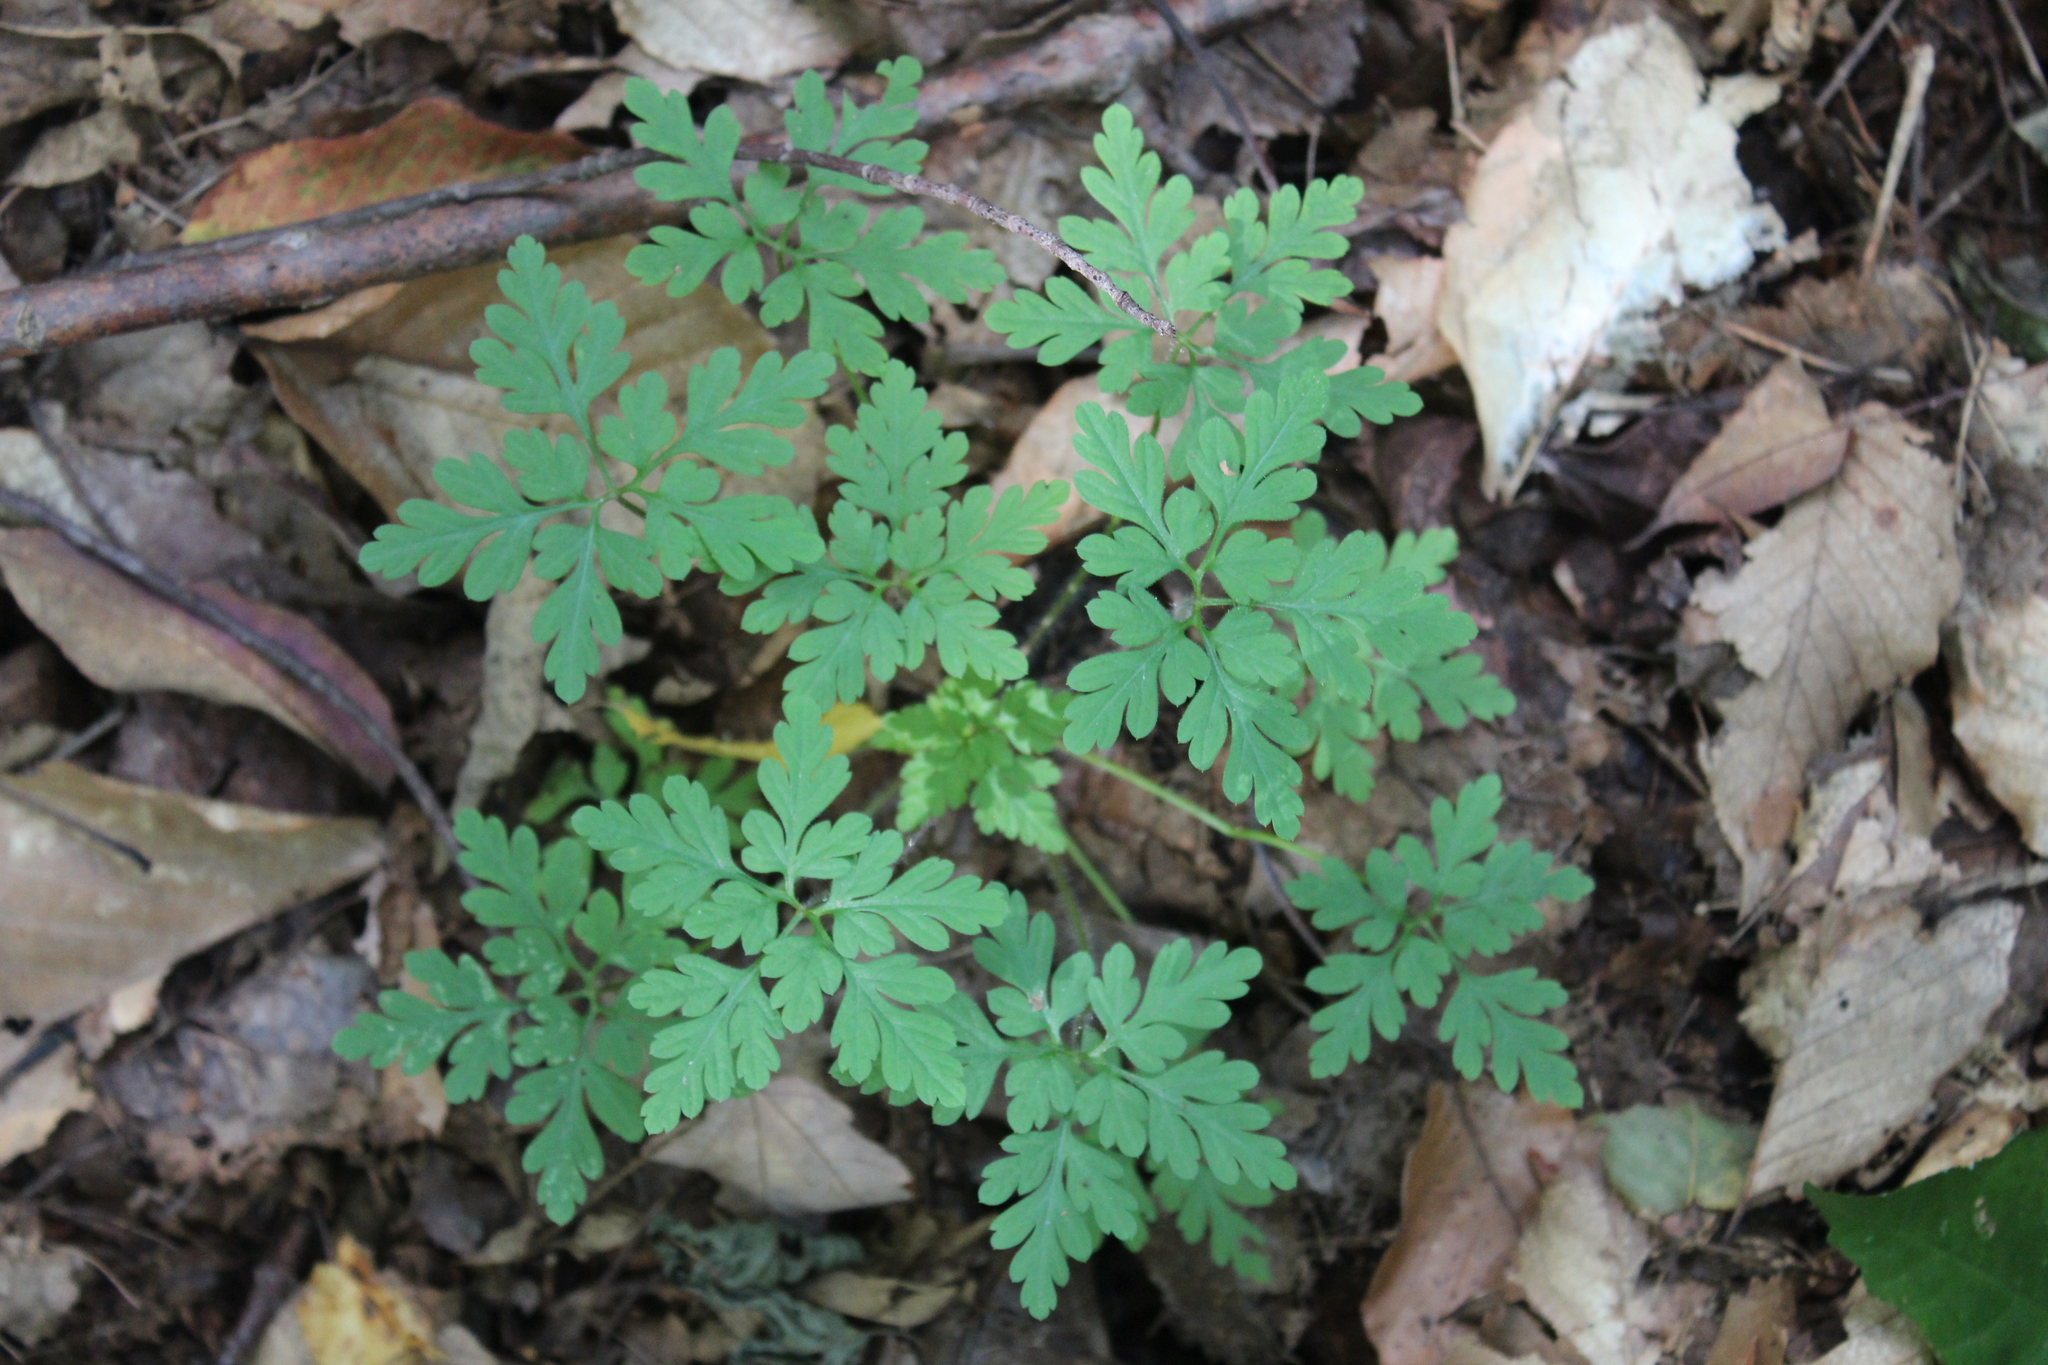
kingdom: Plantae
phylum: Tracheophyta
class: Magnoliopsida
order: Geraniales
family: Geraniaceae
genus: Geranium
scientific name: Geranium robertianum
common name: Herb-robert
